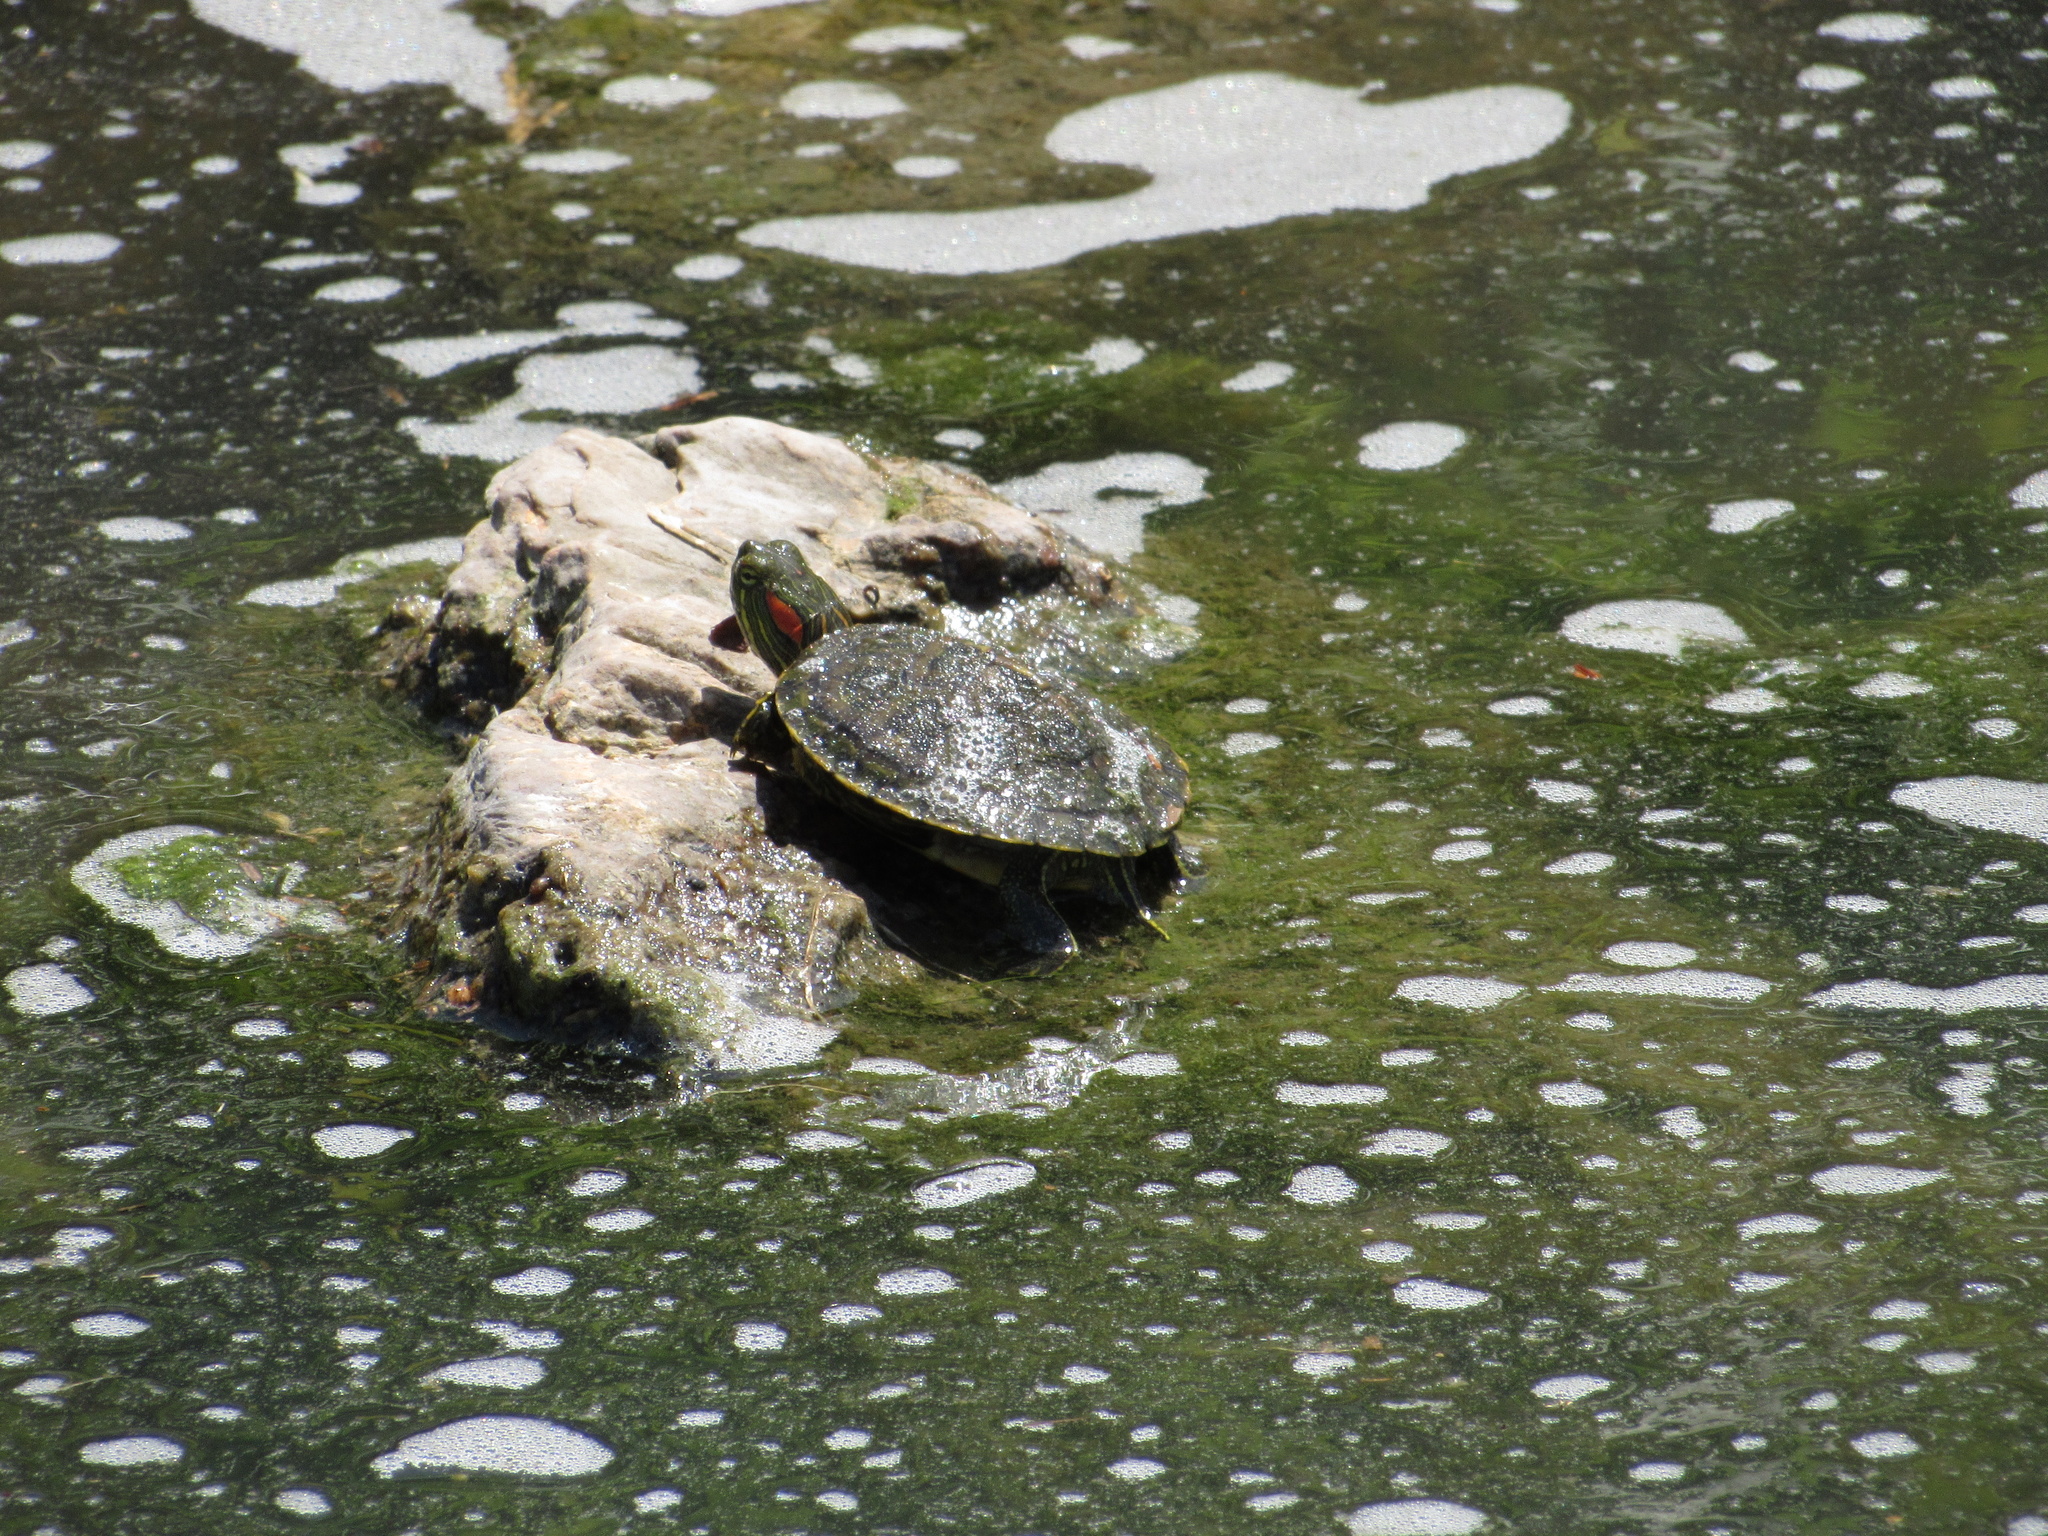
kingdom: Animalia
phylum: Chordata
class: Testudines
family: Emydidae
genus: Trachemys
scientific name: Trachemys scripta
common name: Slider
